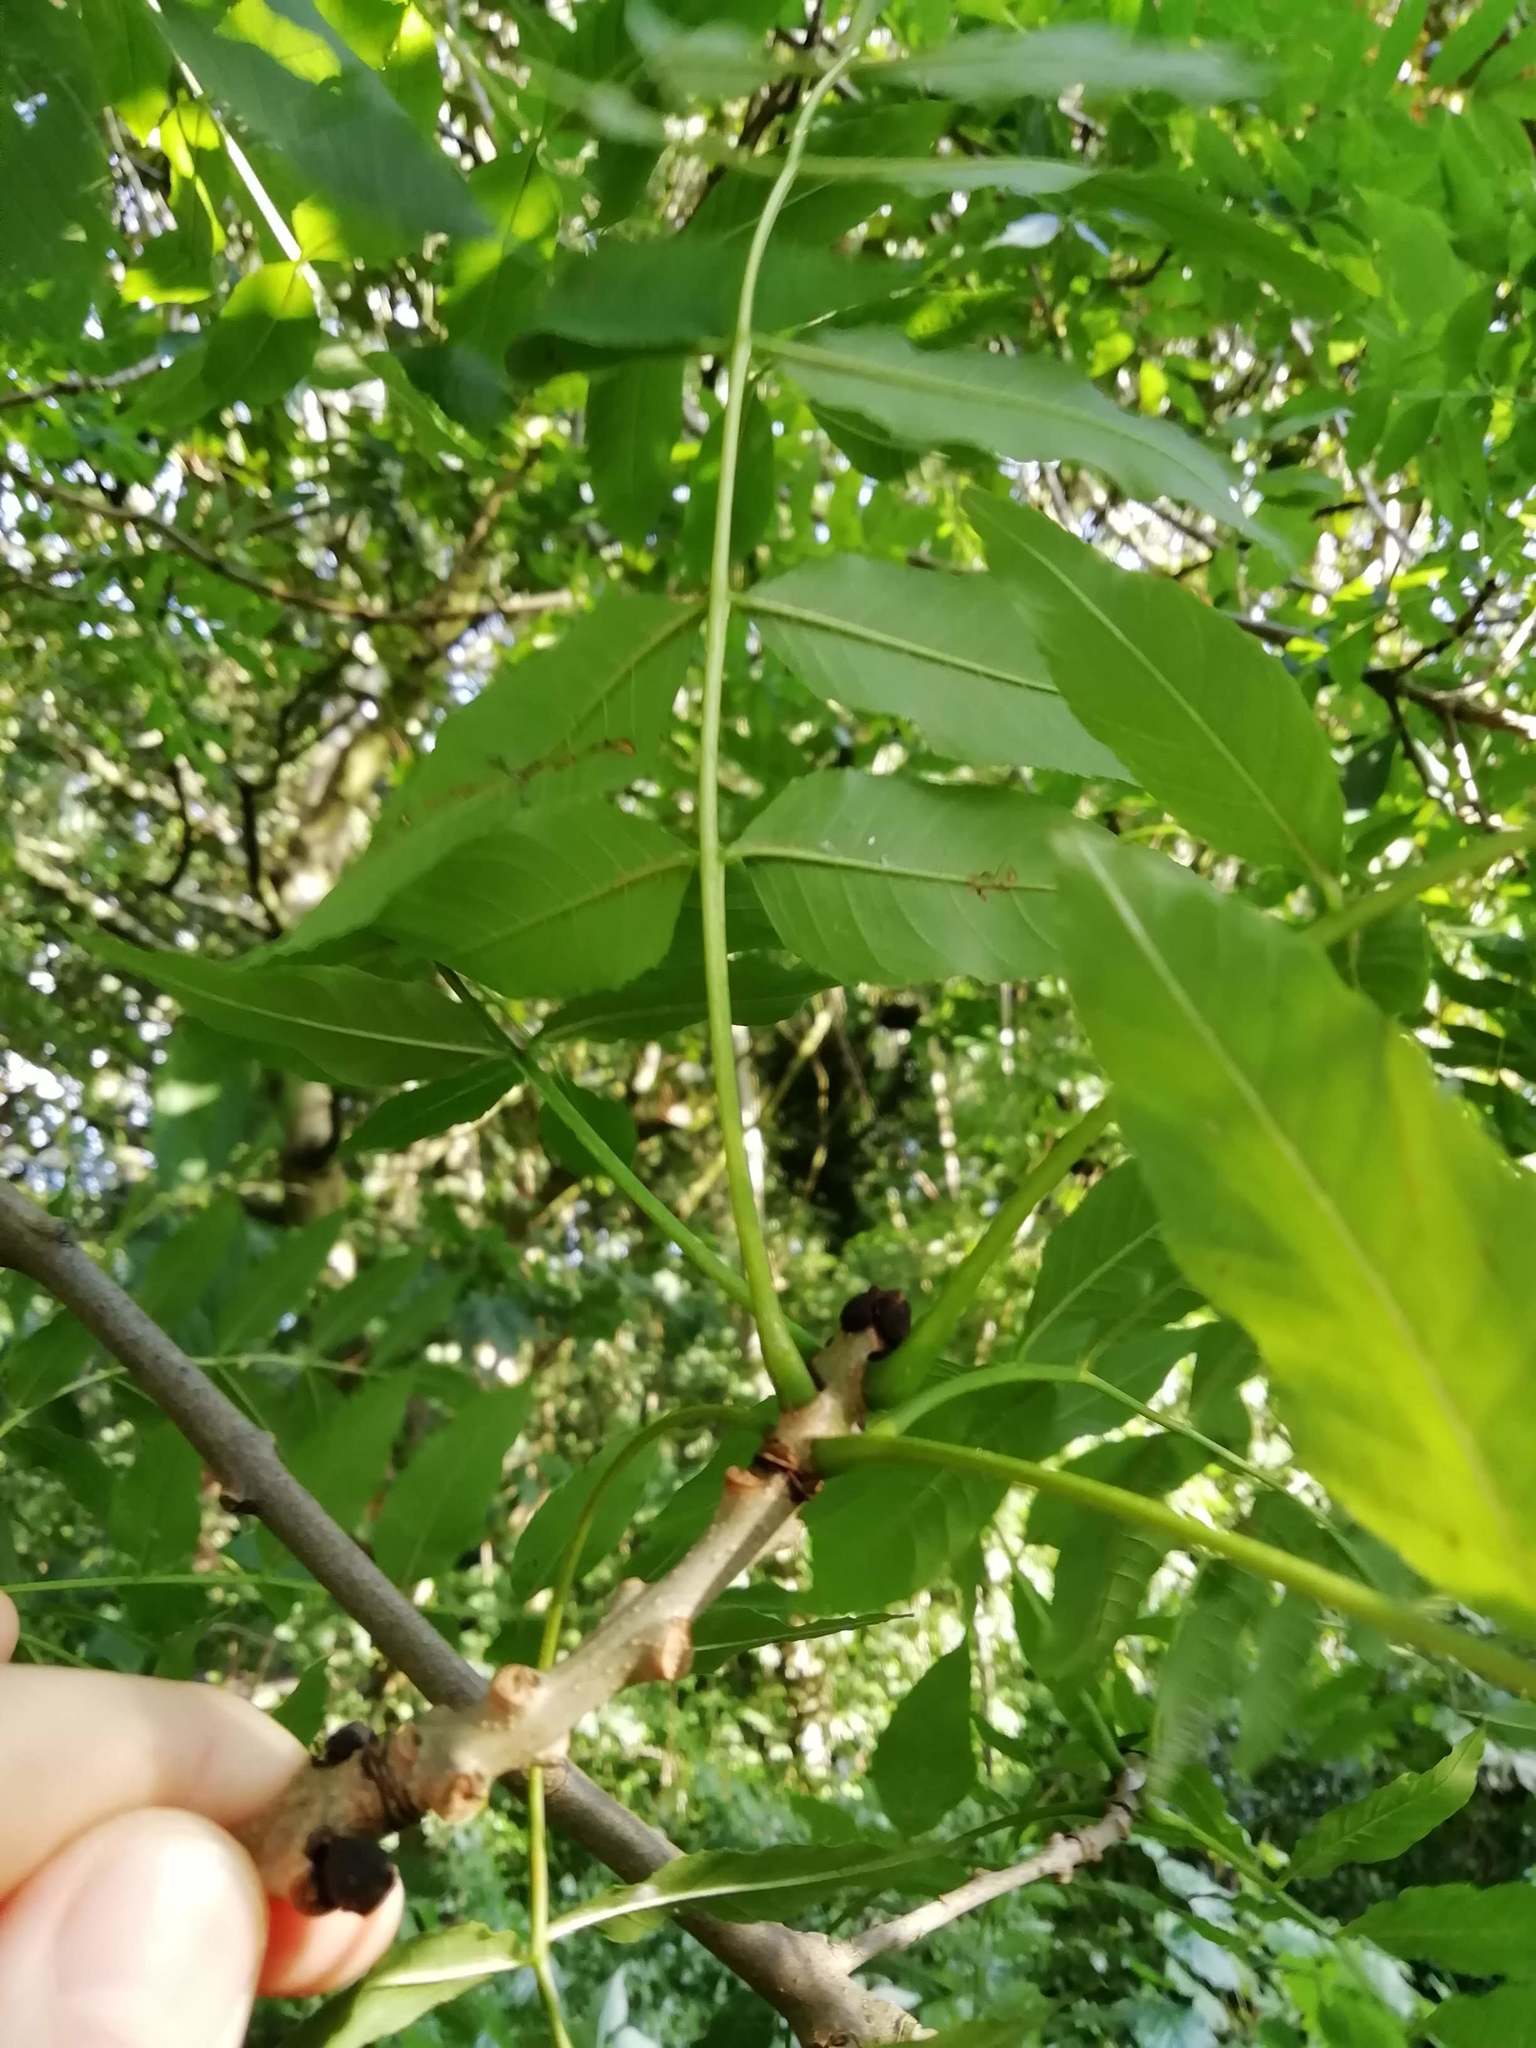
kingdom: Plantae
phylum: Tracheophyta
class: Magnoliopsida
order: Lamiales
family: Oleaceae
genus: Fraxinus
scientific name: Fraxinus excelsior
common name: European ash
